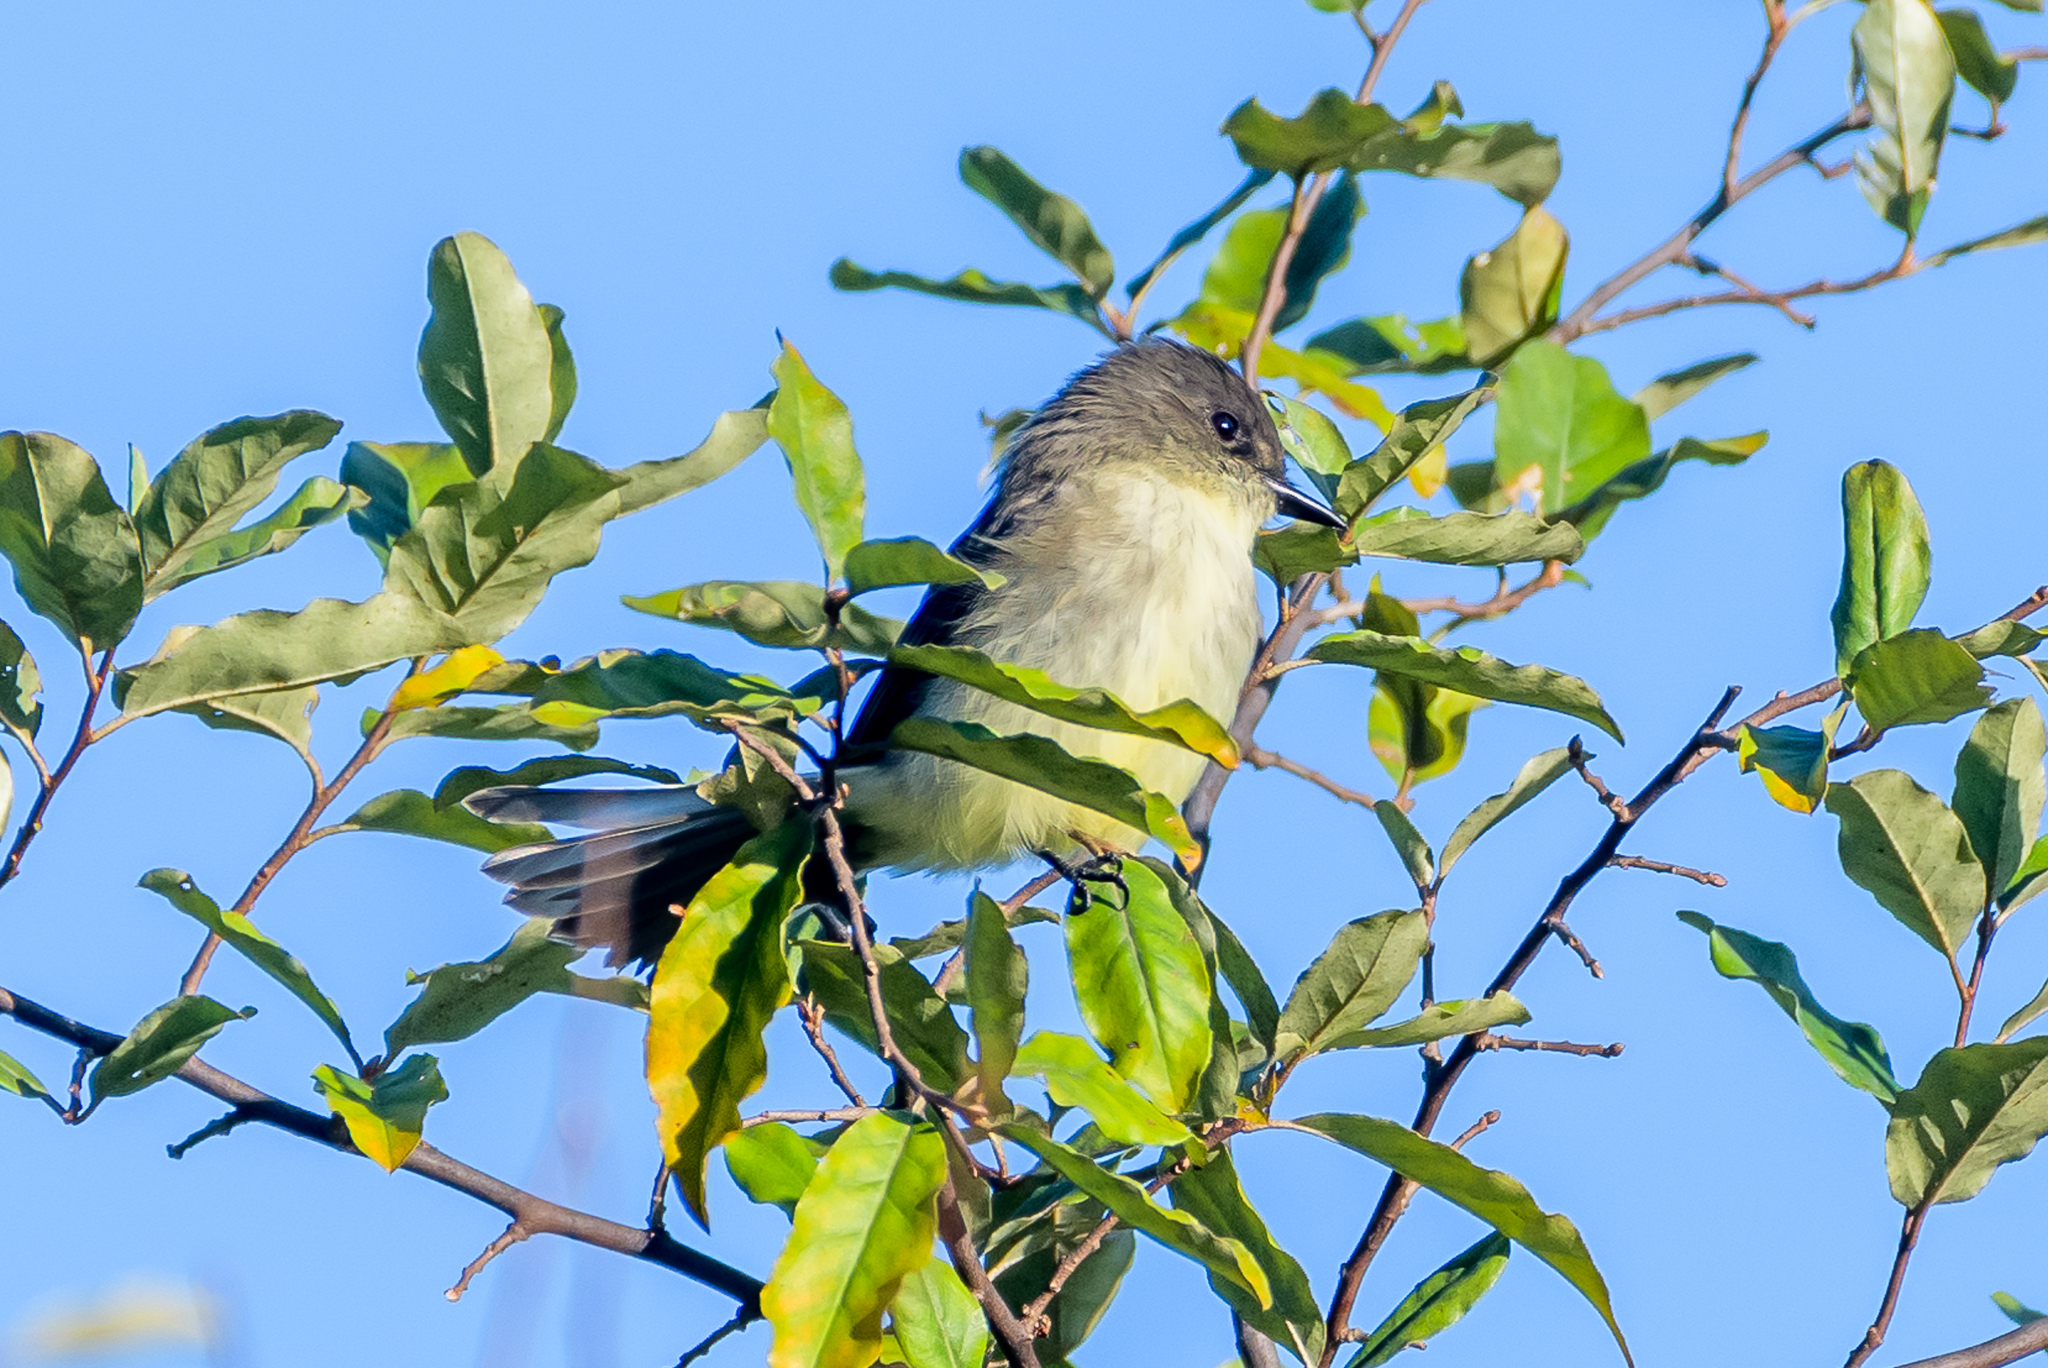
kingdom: Animalia
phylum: Chordata
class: Aves
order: Passeriformes
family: Tyrannidae
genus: Sayornis
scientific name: Sayornis phoebe
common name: Eastern phoebe
